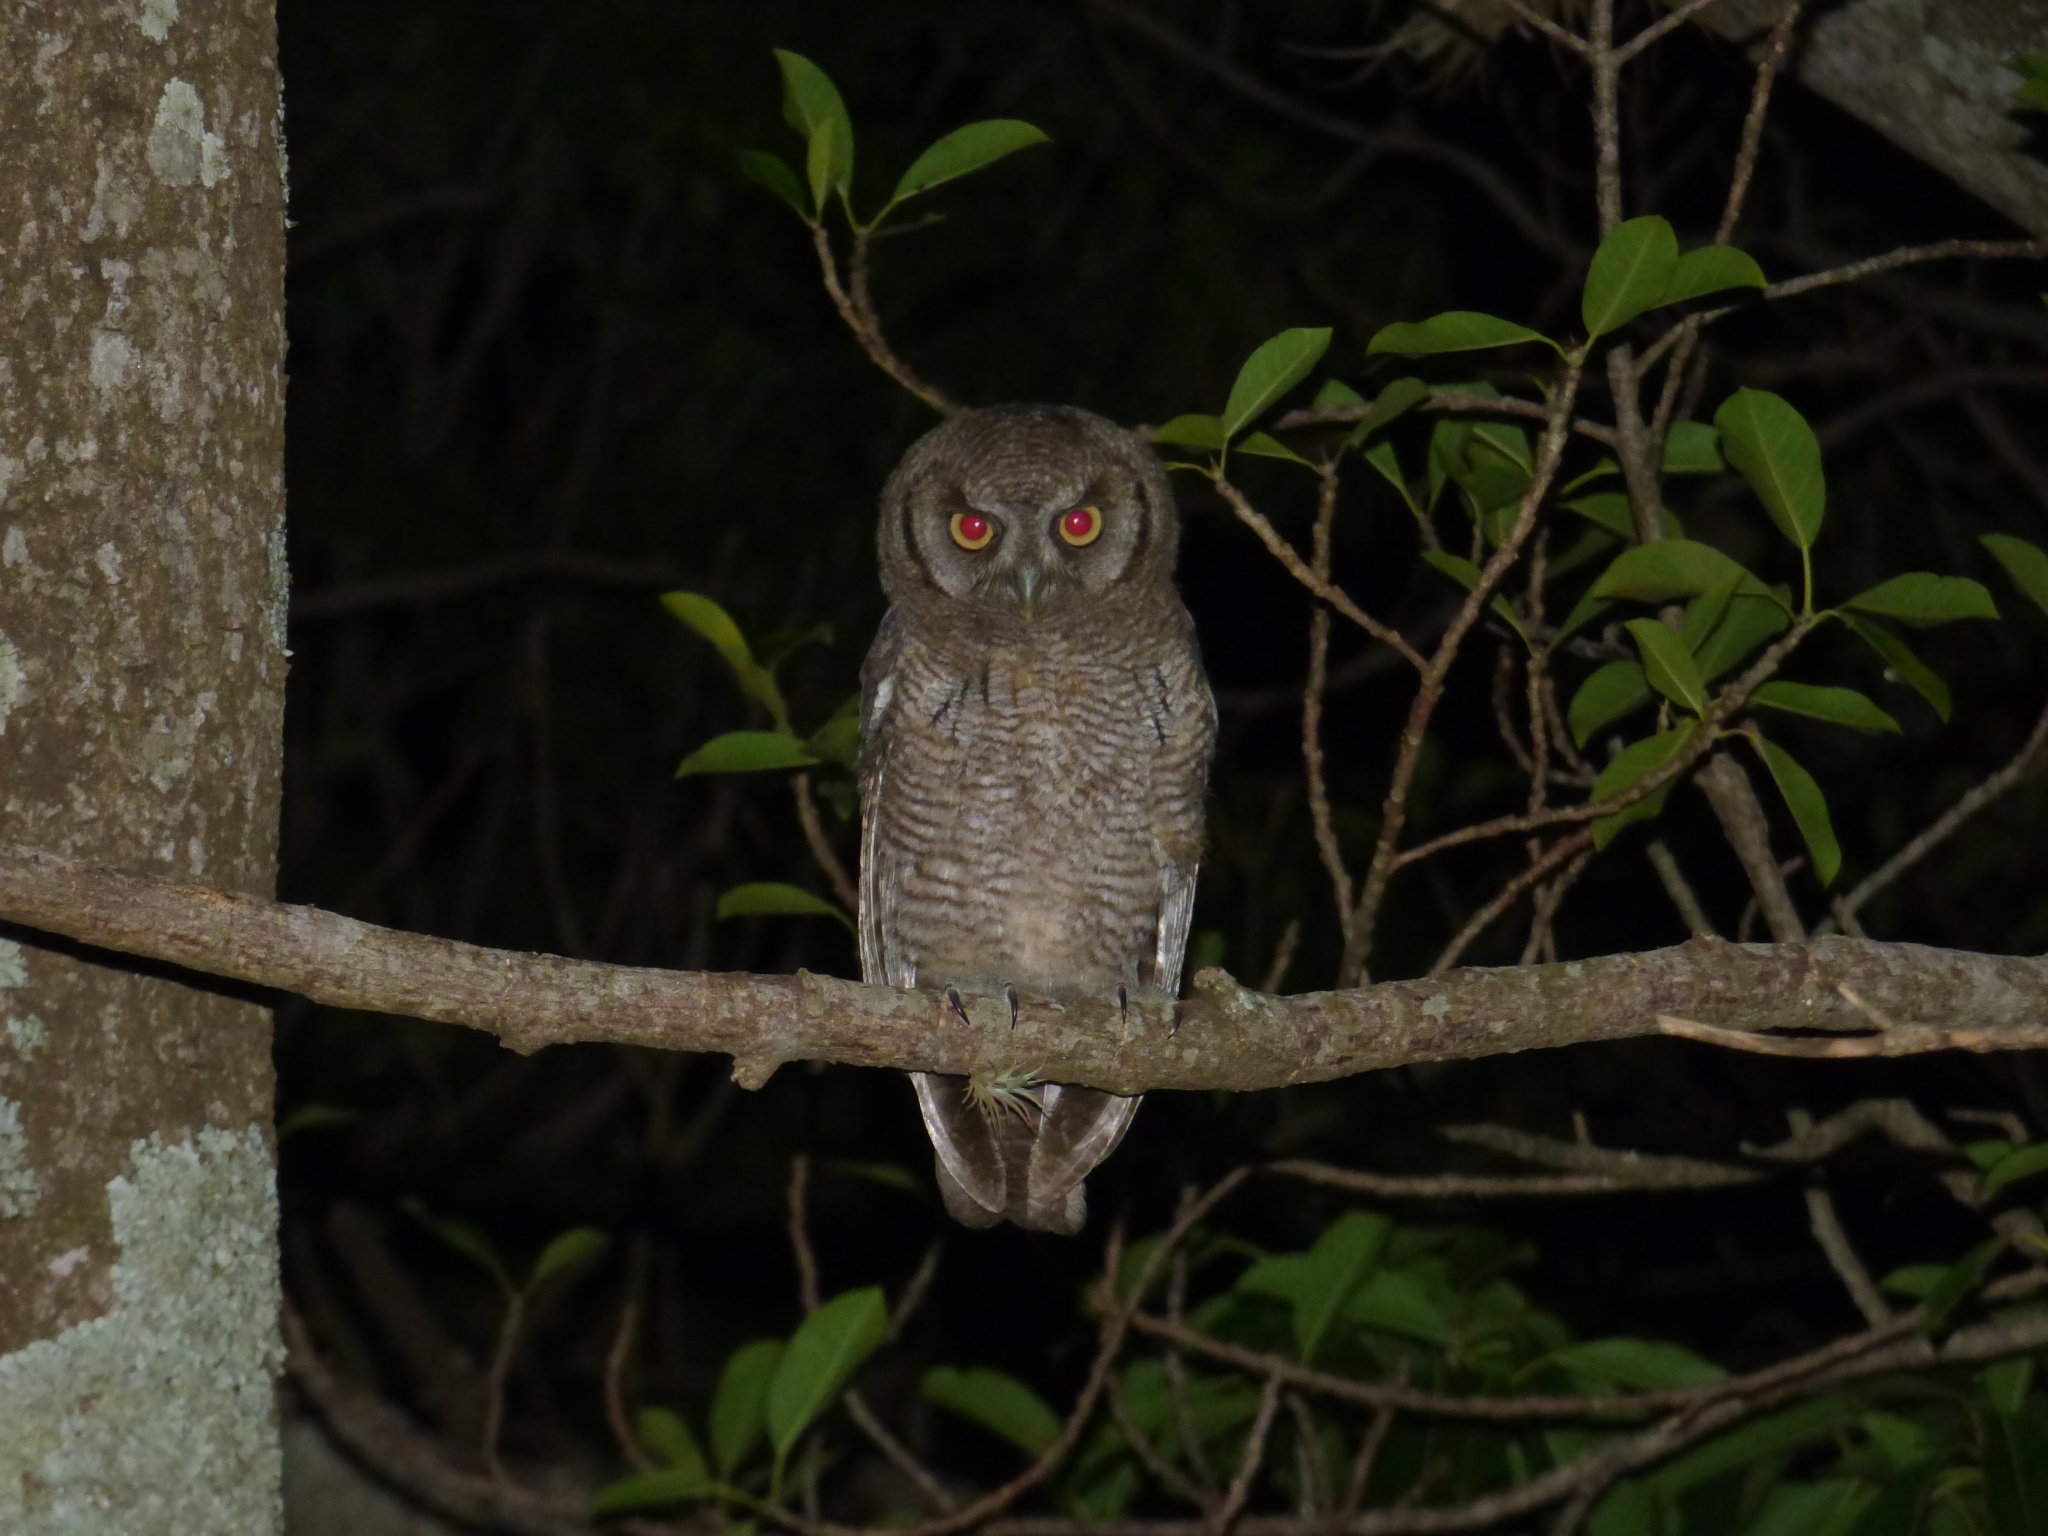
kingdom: Animalia
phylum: Chordata
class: Aves
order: Strigiformes
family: Strigidae
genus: Megascops
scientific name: Megascops choliba
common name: Tropical screech-owl
